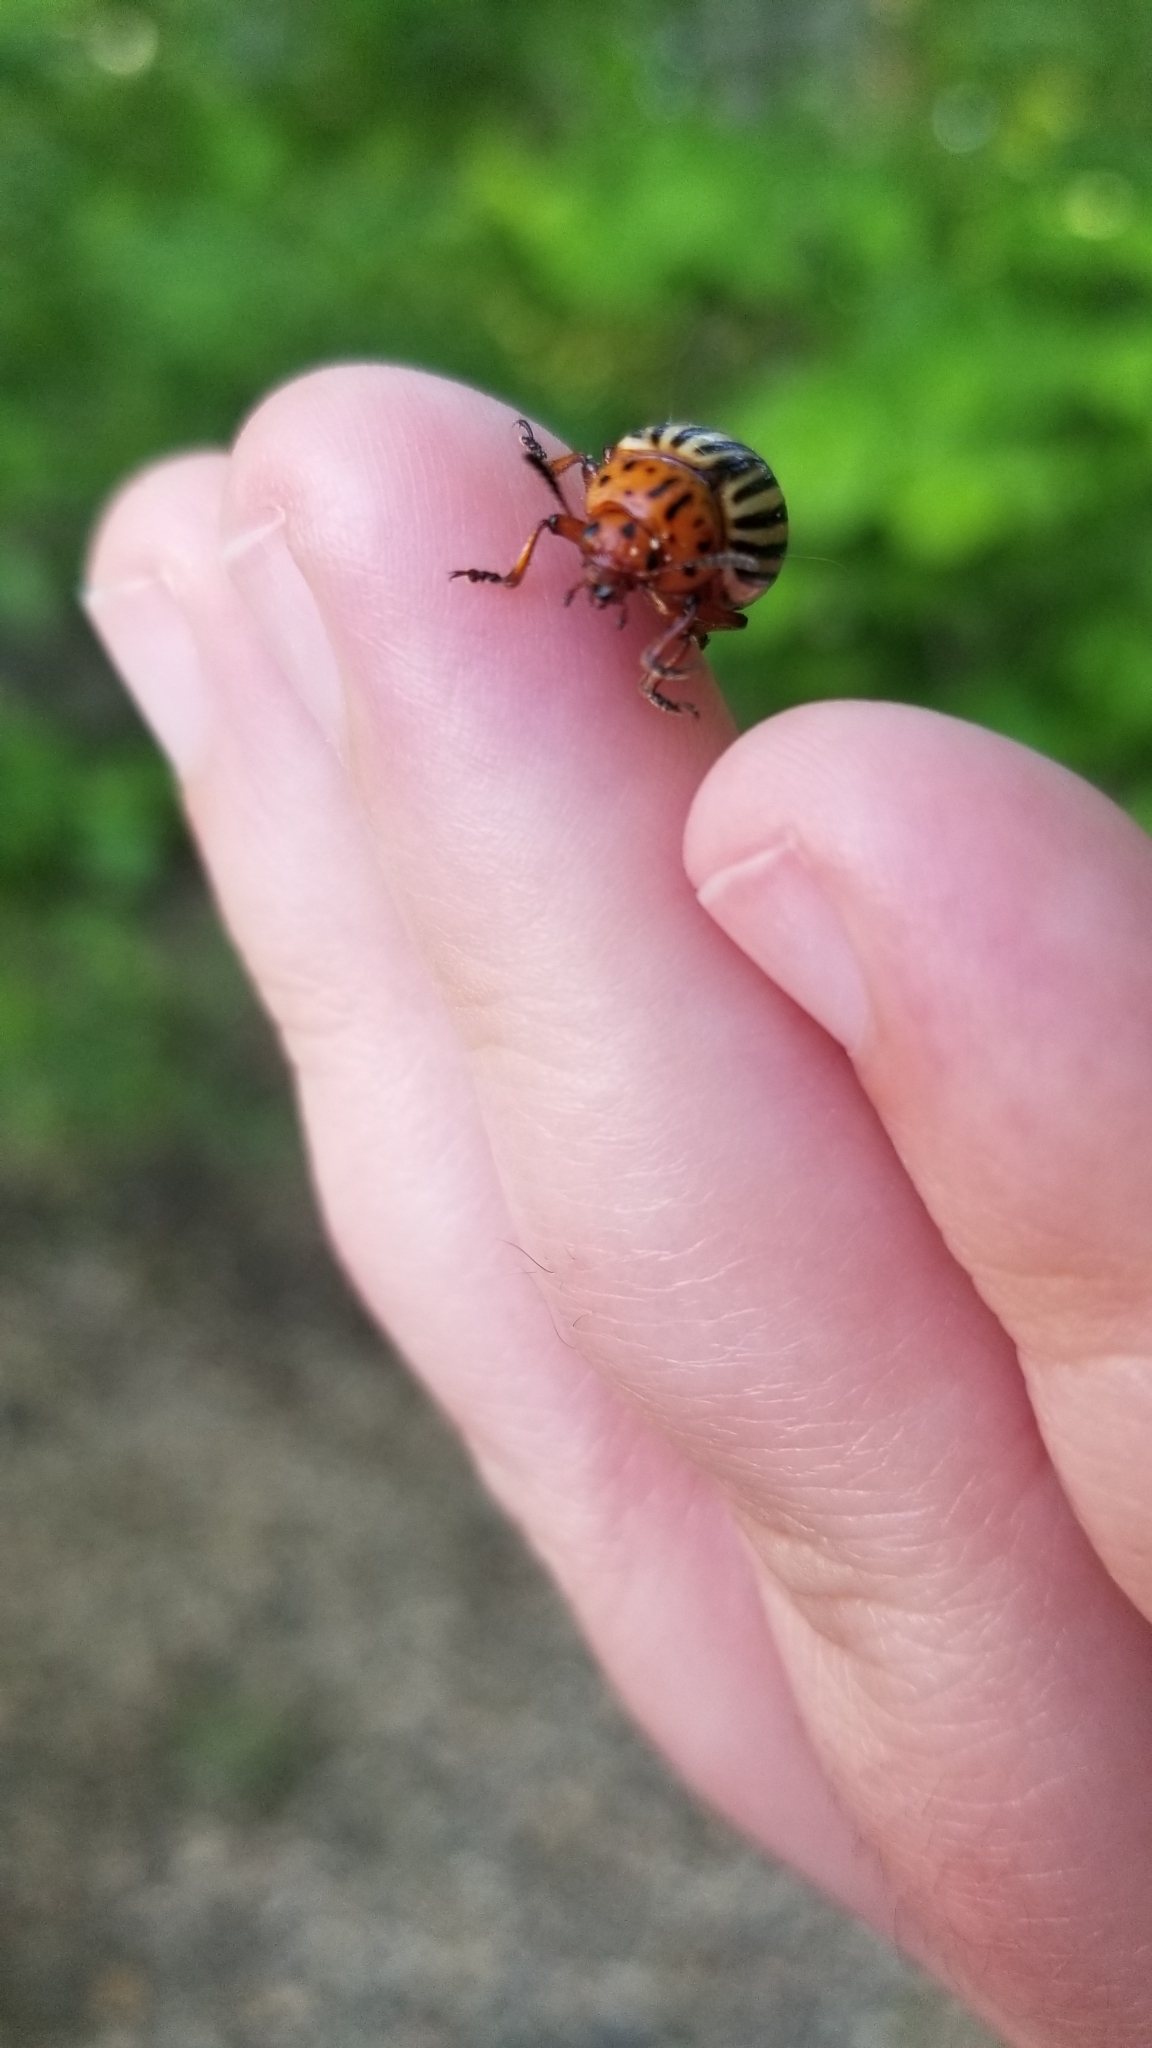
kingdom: Animalia
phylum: Arthropoda
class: Insecta
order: Coleoptera
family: Chrysomelidae
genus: Leptinotarsa
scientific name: Leptinotarsa decemlineata
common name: Colorado potato beetle
